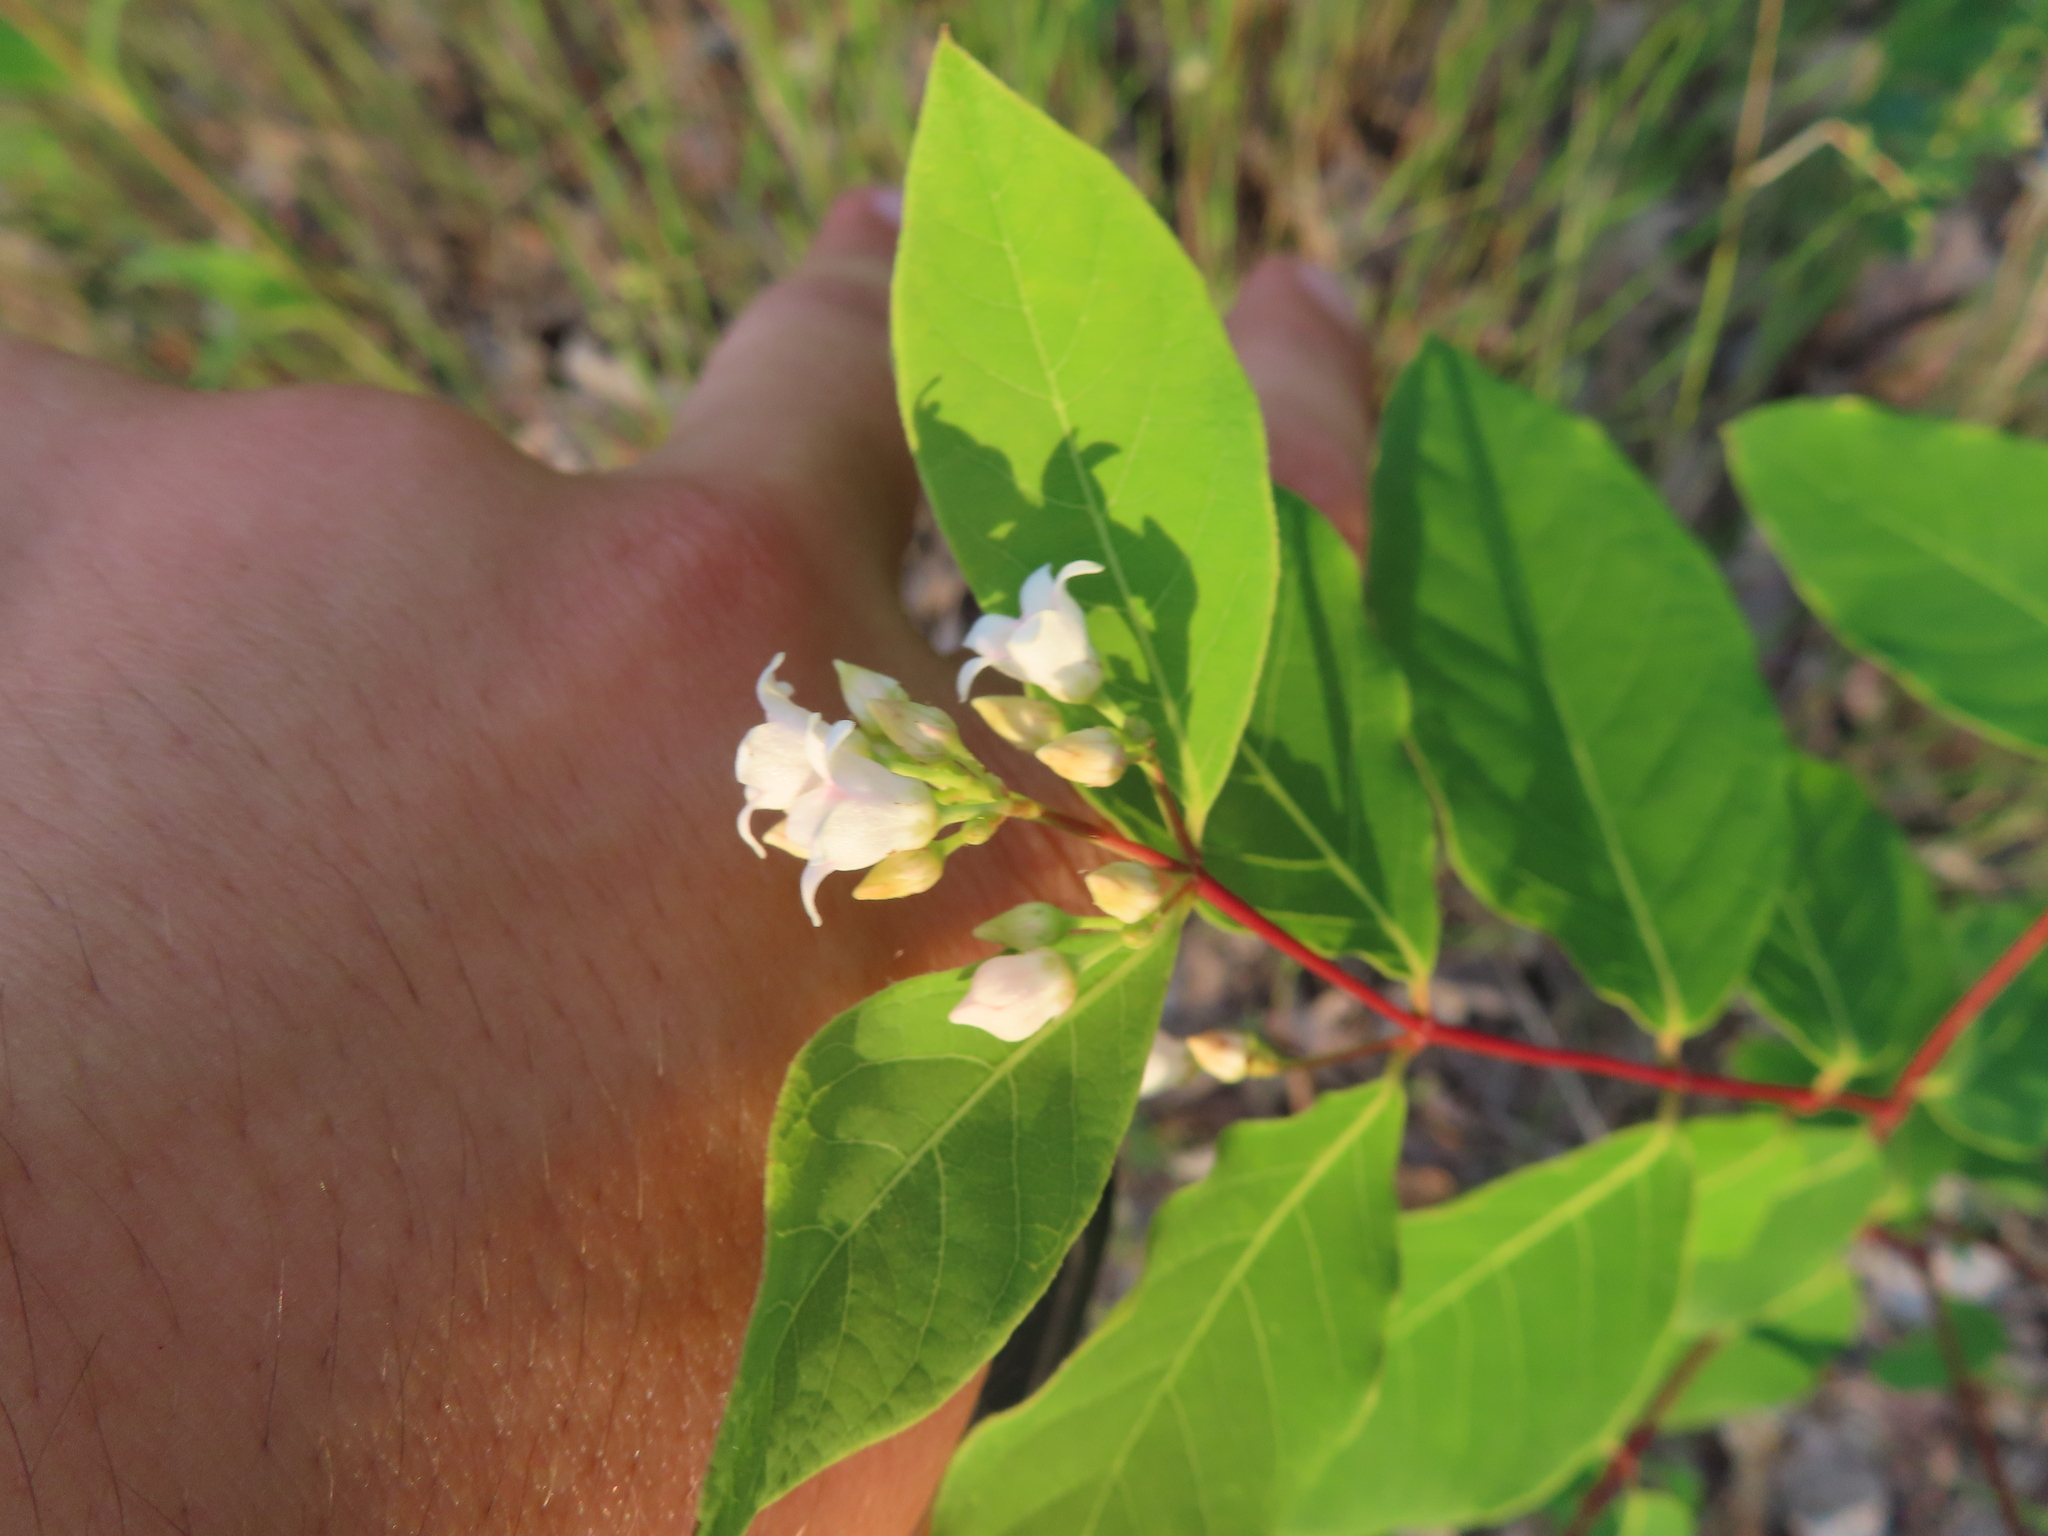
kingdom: Plantae
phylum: Tracheophyta
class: Magnoliopsida
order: Gentianales
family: Apocynaceae
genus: Apocynum
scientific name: Apocynum androsaemifolium
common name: Spreading dogbane
